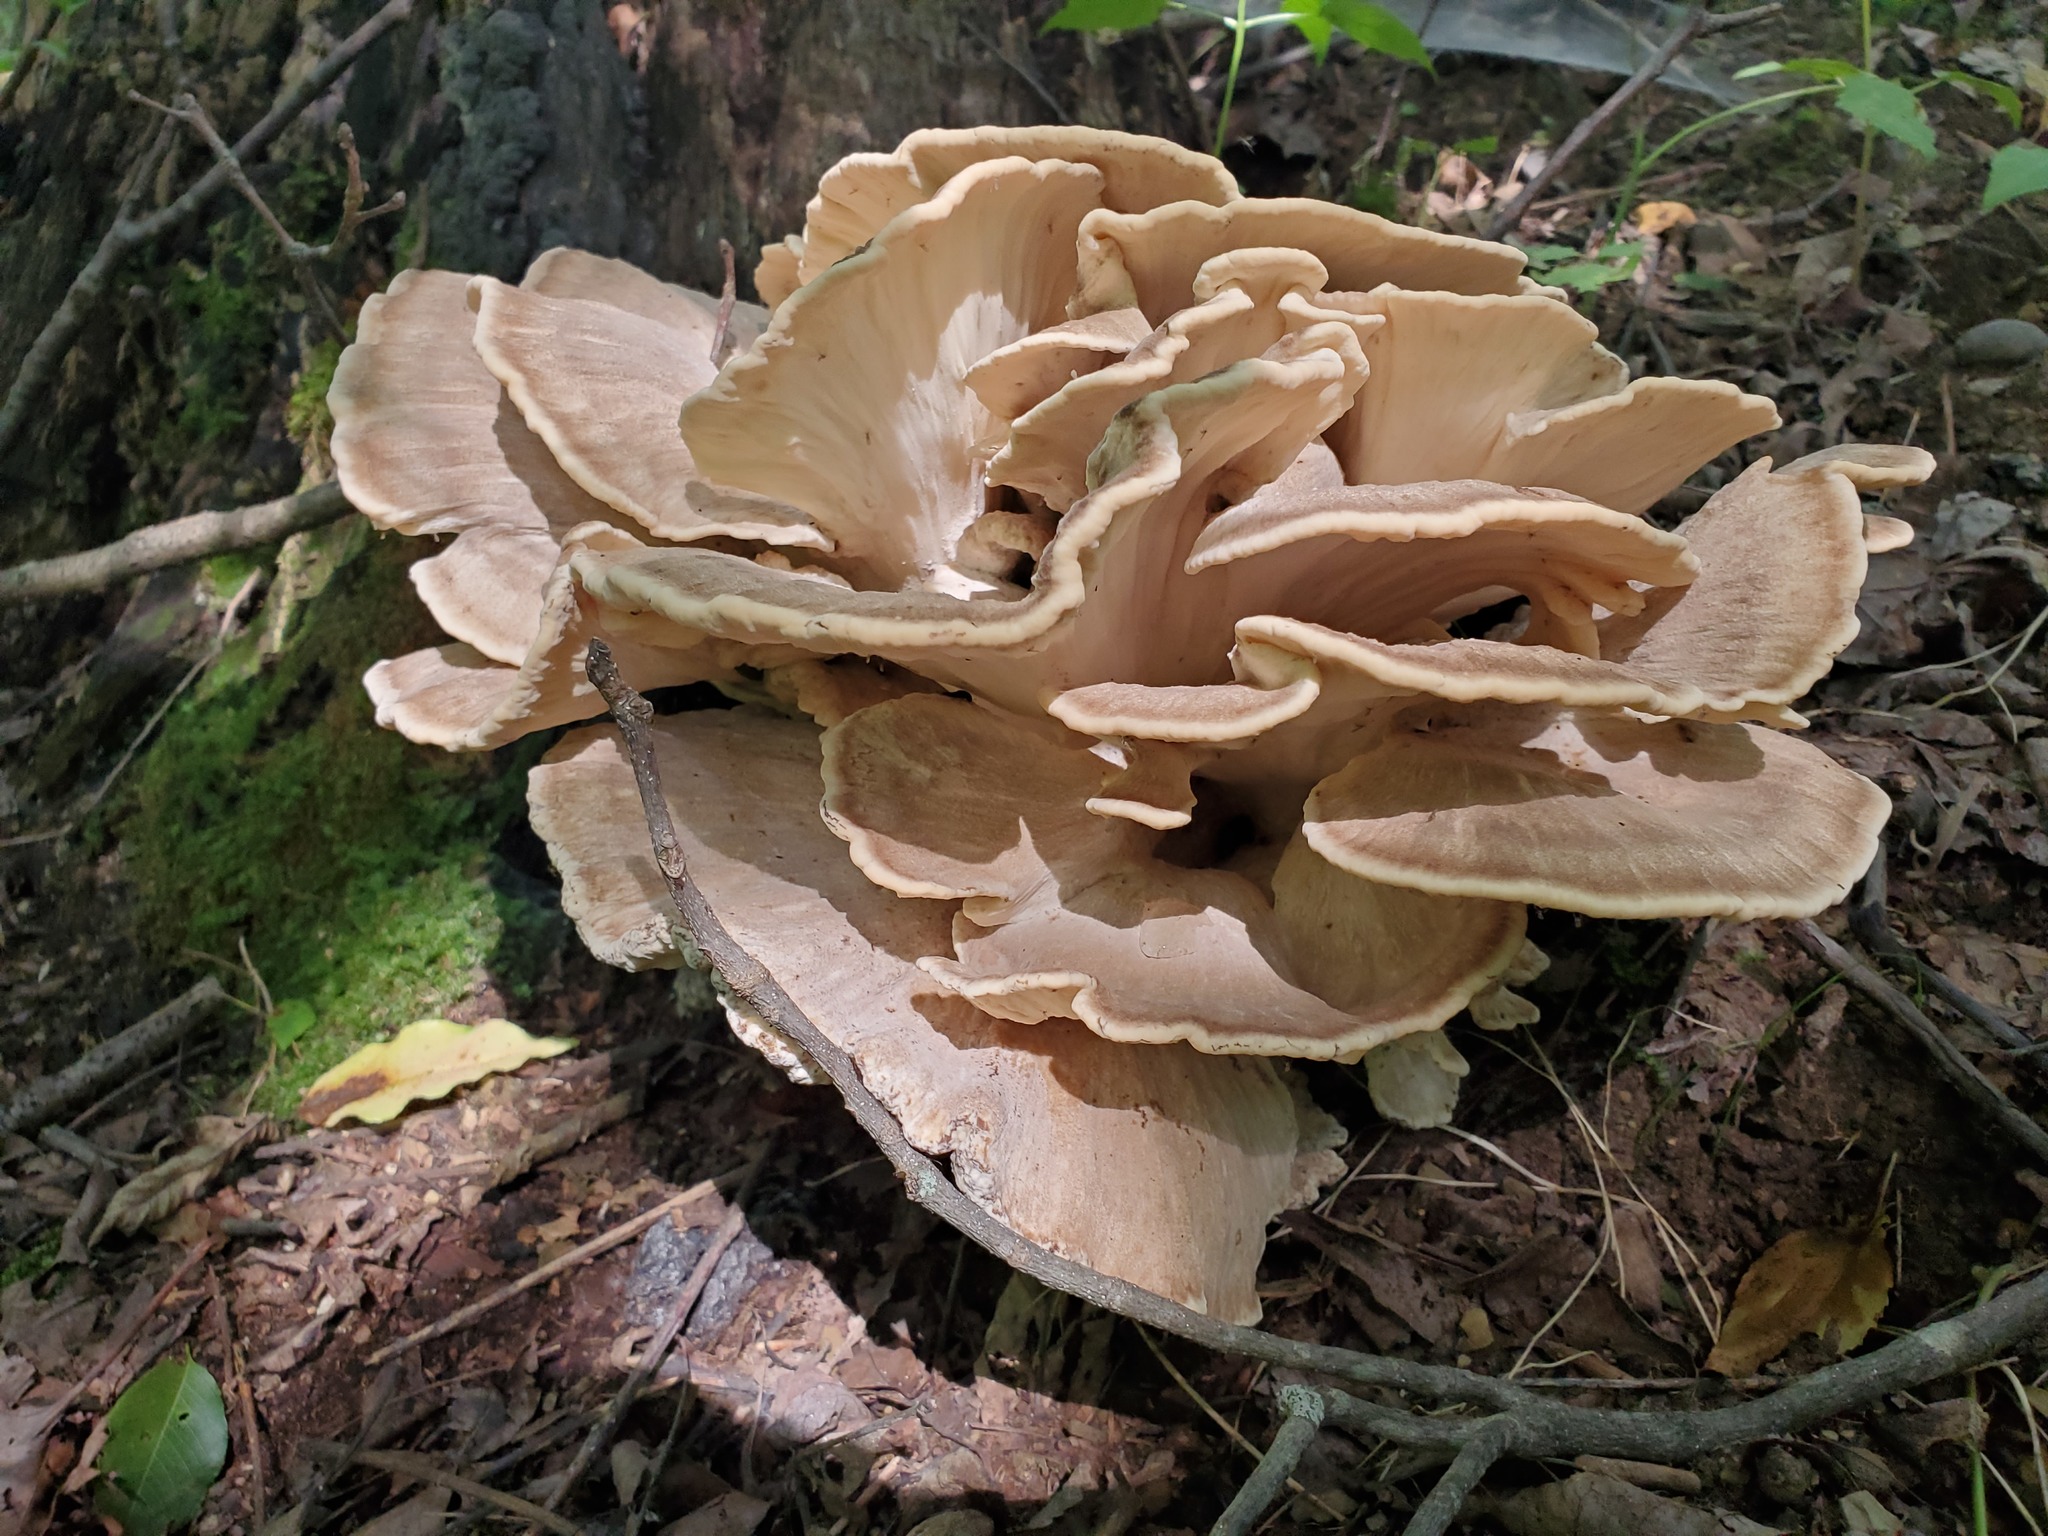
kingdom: Fungi
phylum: Basidiomycota
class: Agaricomycetes
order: Polyporales
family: Meripilaceae
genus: Meripilus
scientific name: Meripilus sumstinei
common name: Black-staining polypore
